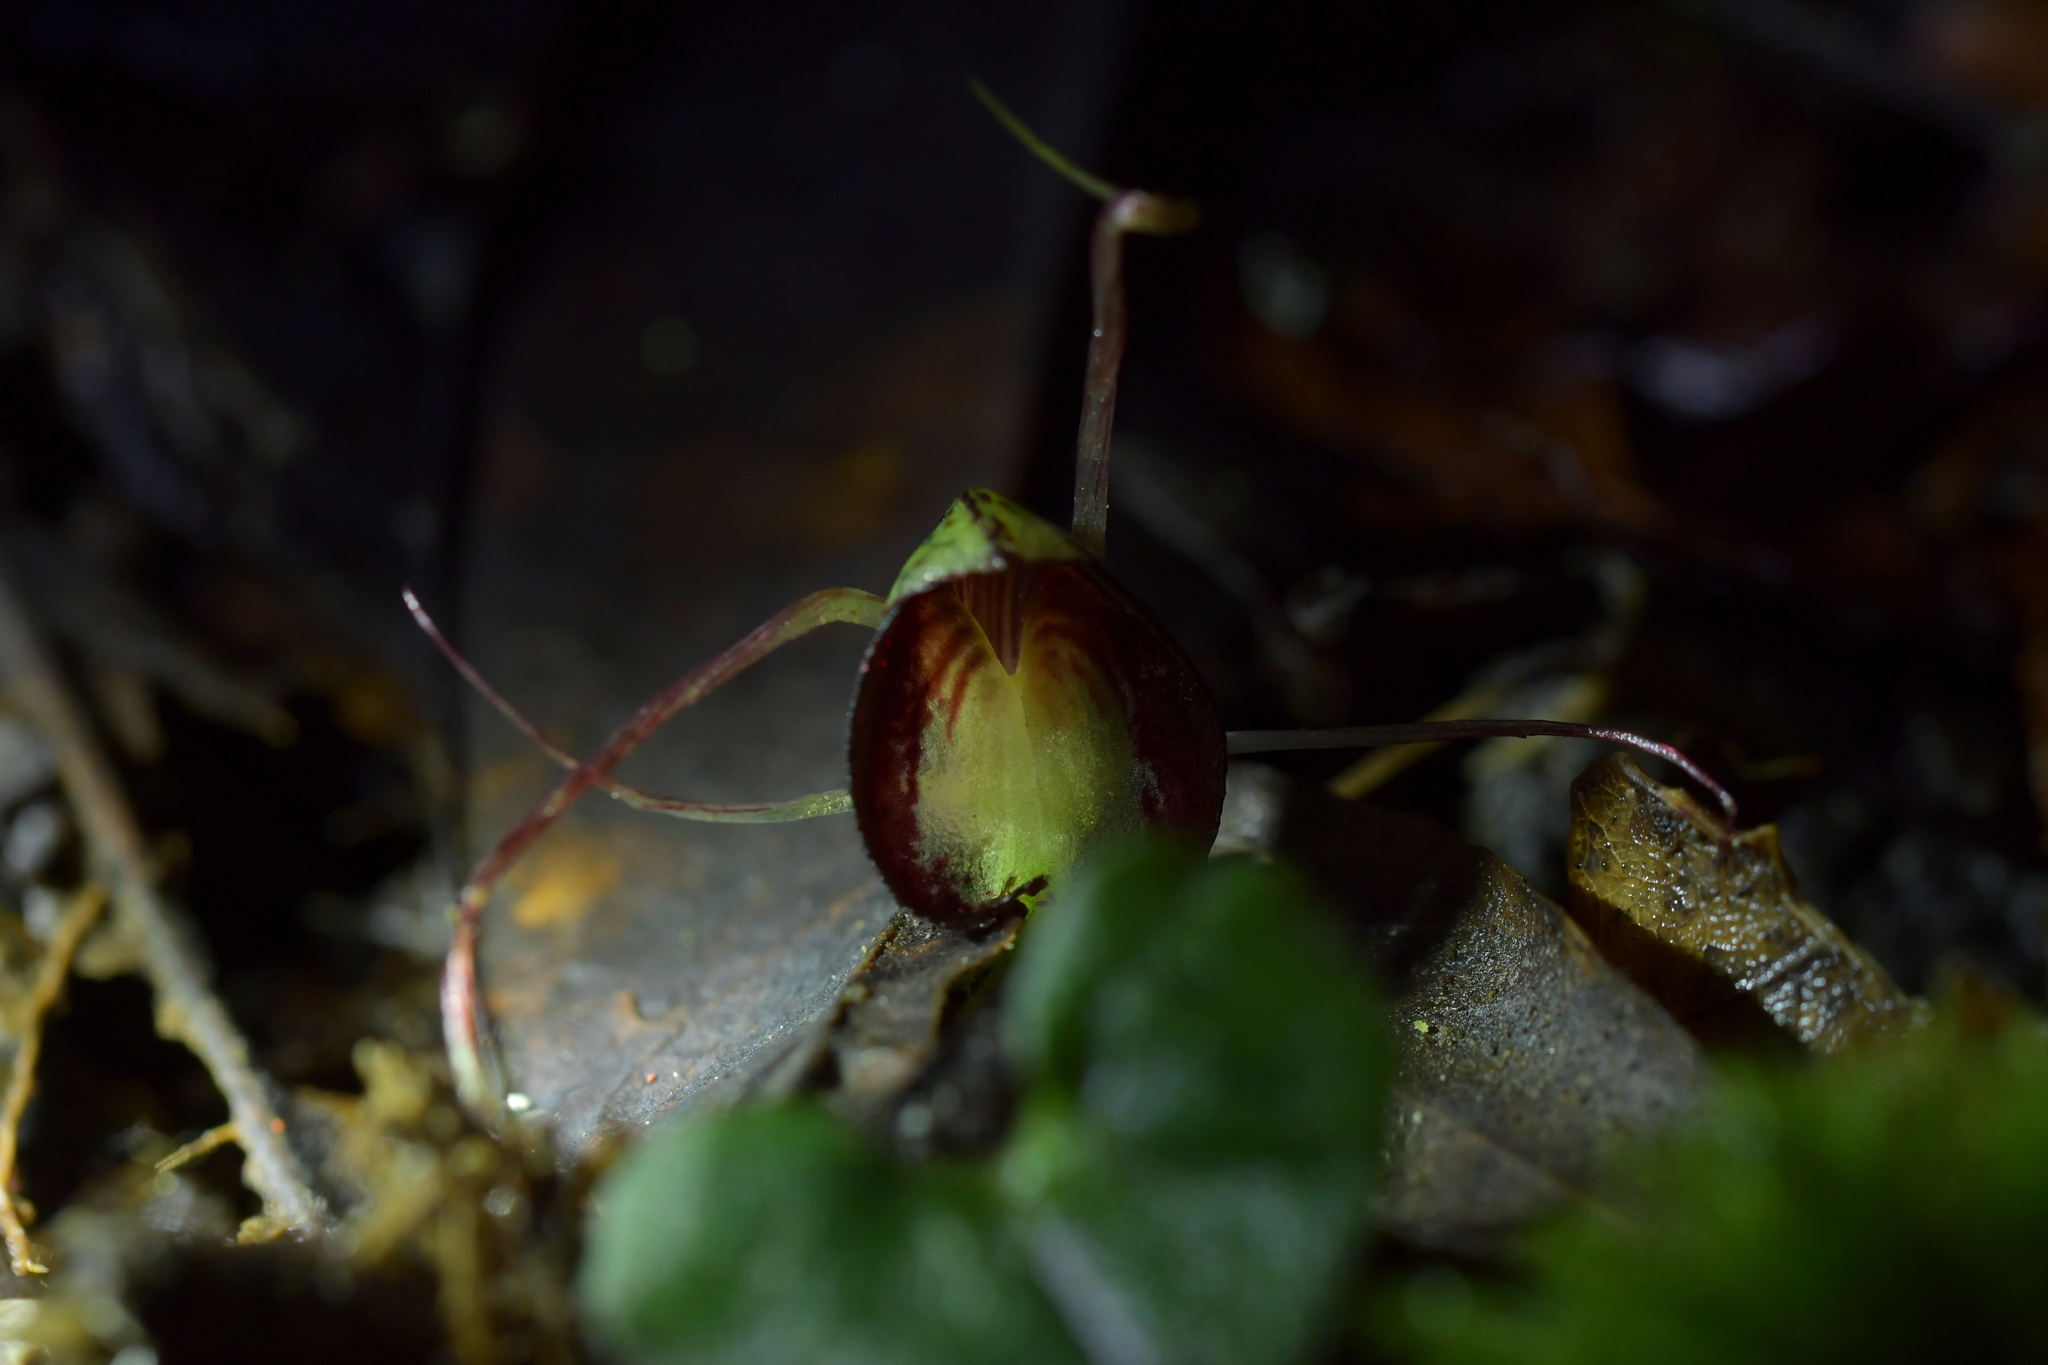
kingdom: Plantae
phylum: Tracheophyta
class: Liliopsida
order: Asparagales
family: Orchidaceae
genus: Corybas
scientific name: Corybas sanctigeorgianus
